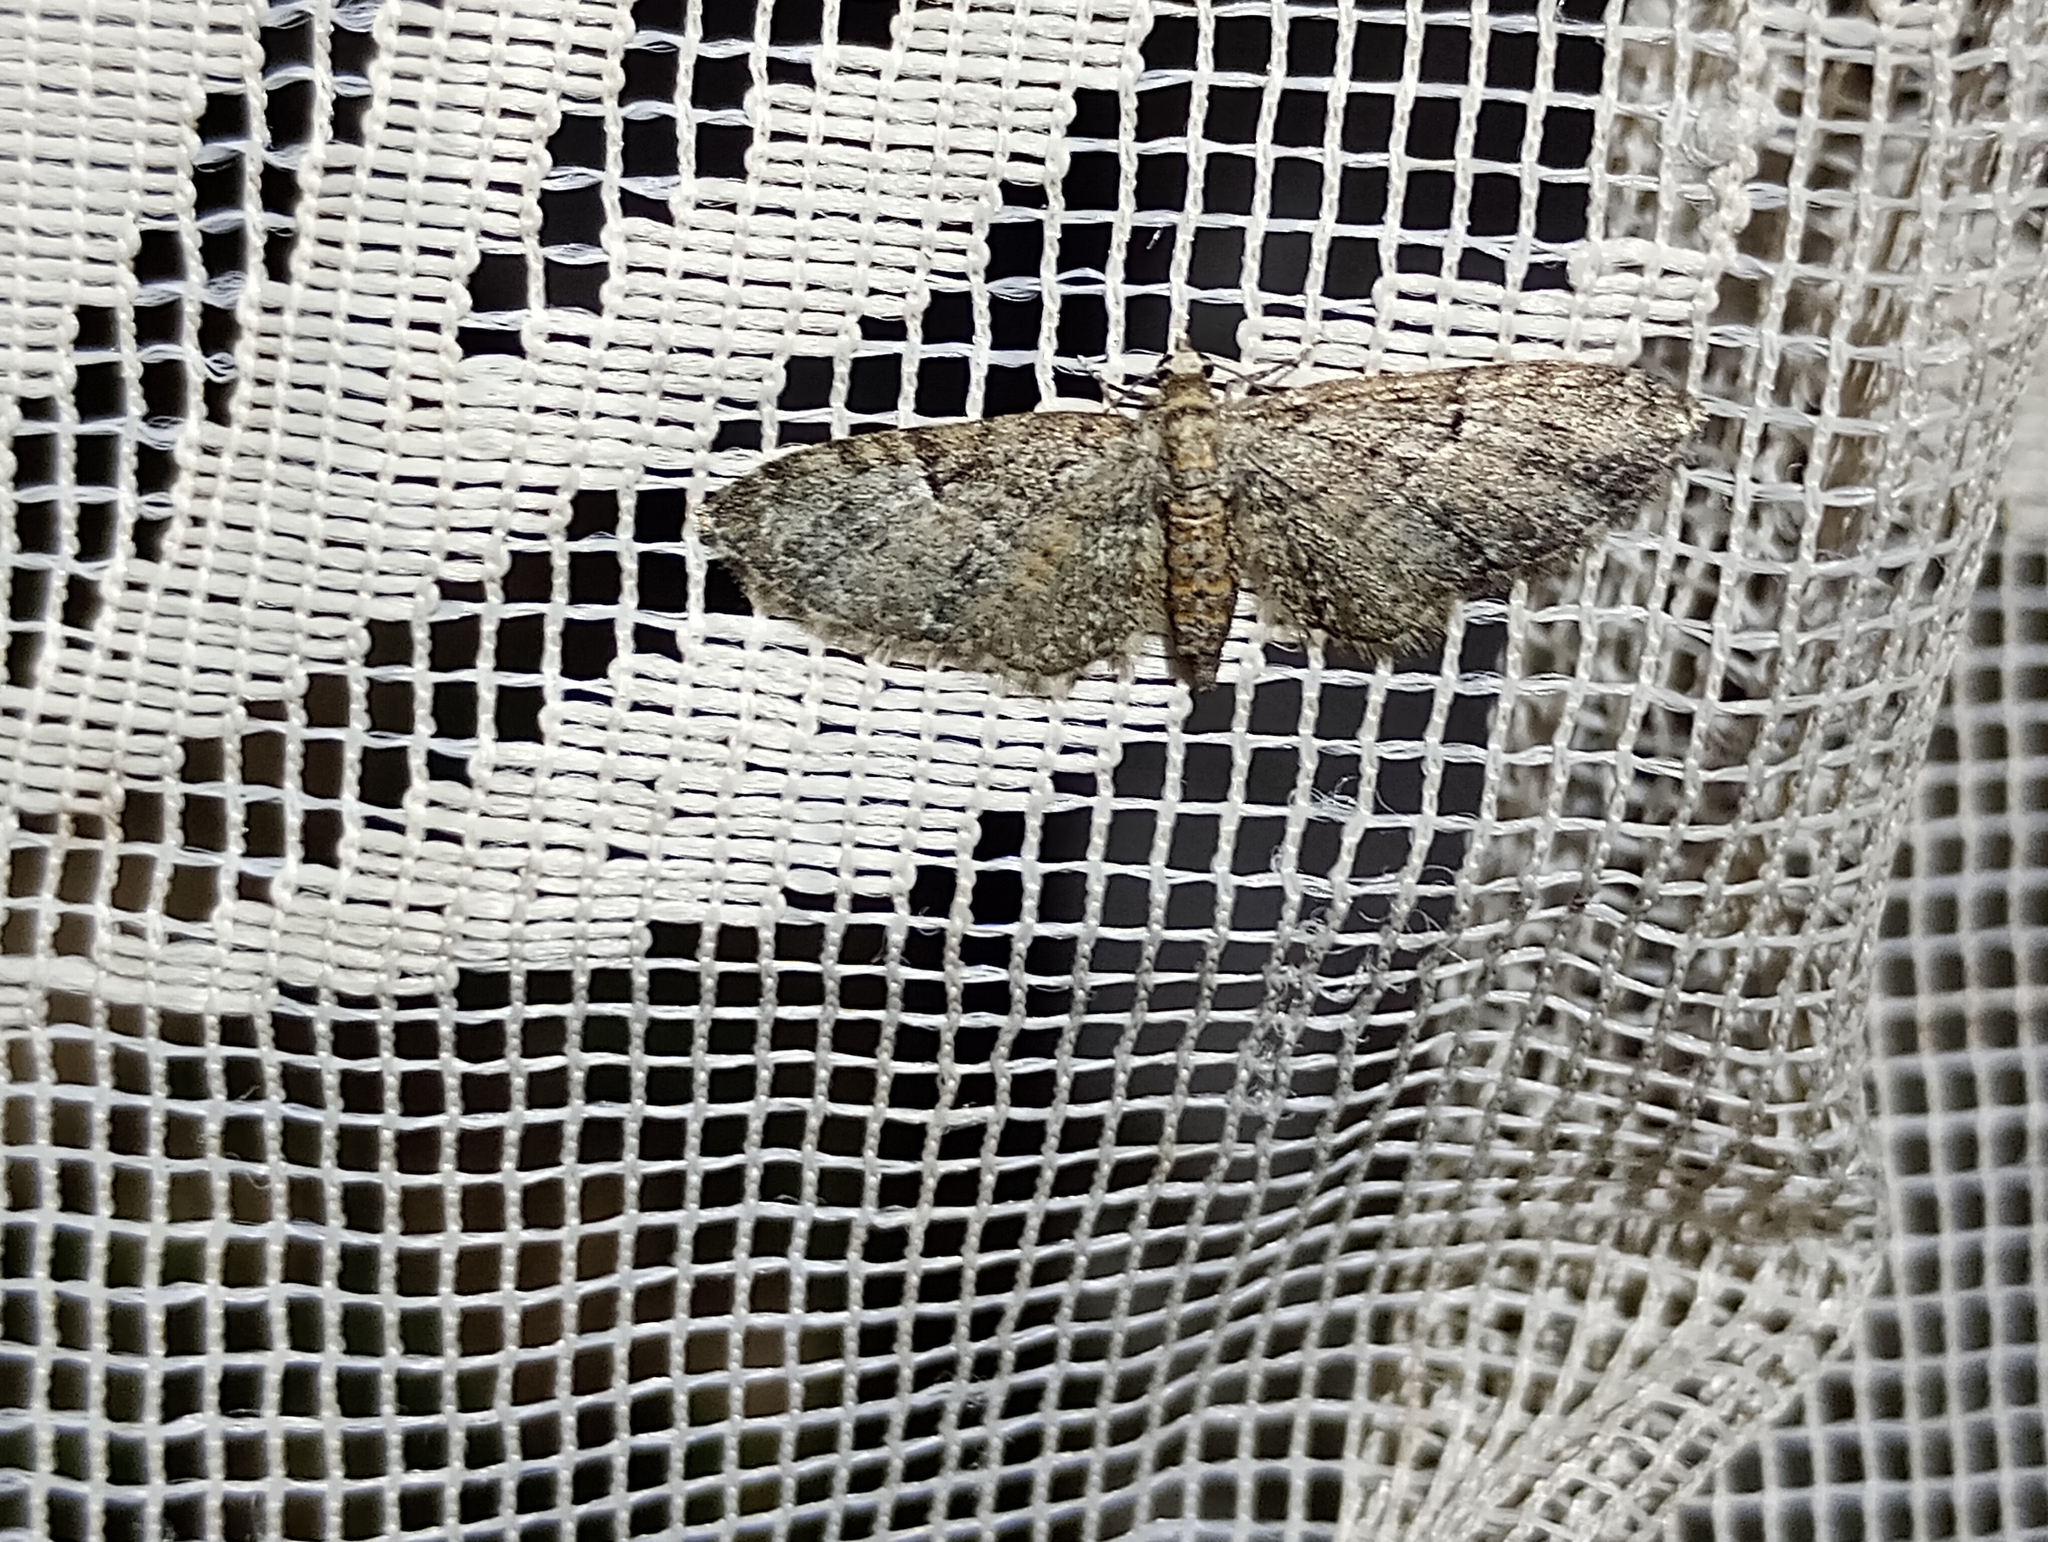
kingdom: Animalia
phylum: Arthropoda
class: Insecta
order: Lepidoptera
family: Geometridae
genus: Eupithecia
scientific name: Eupithecia dodoneata
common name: Oak-tree pug
